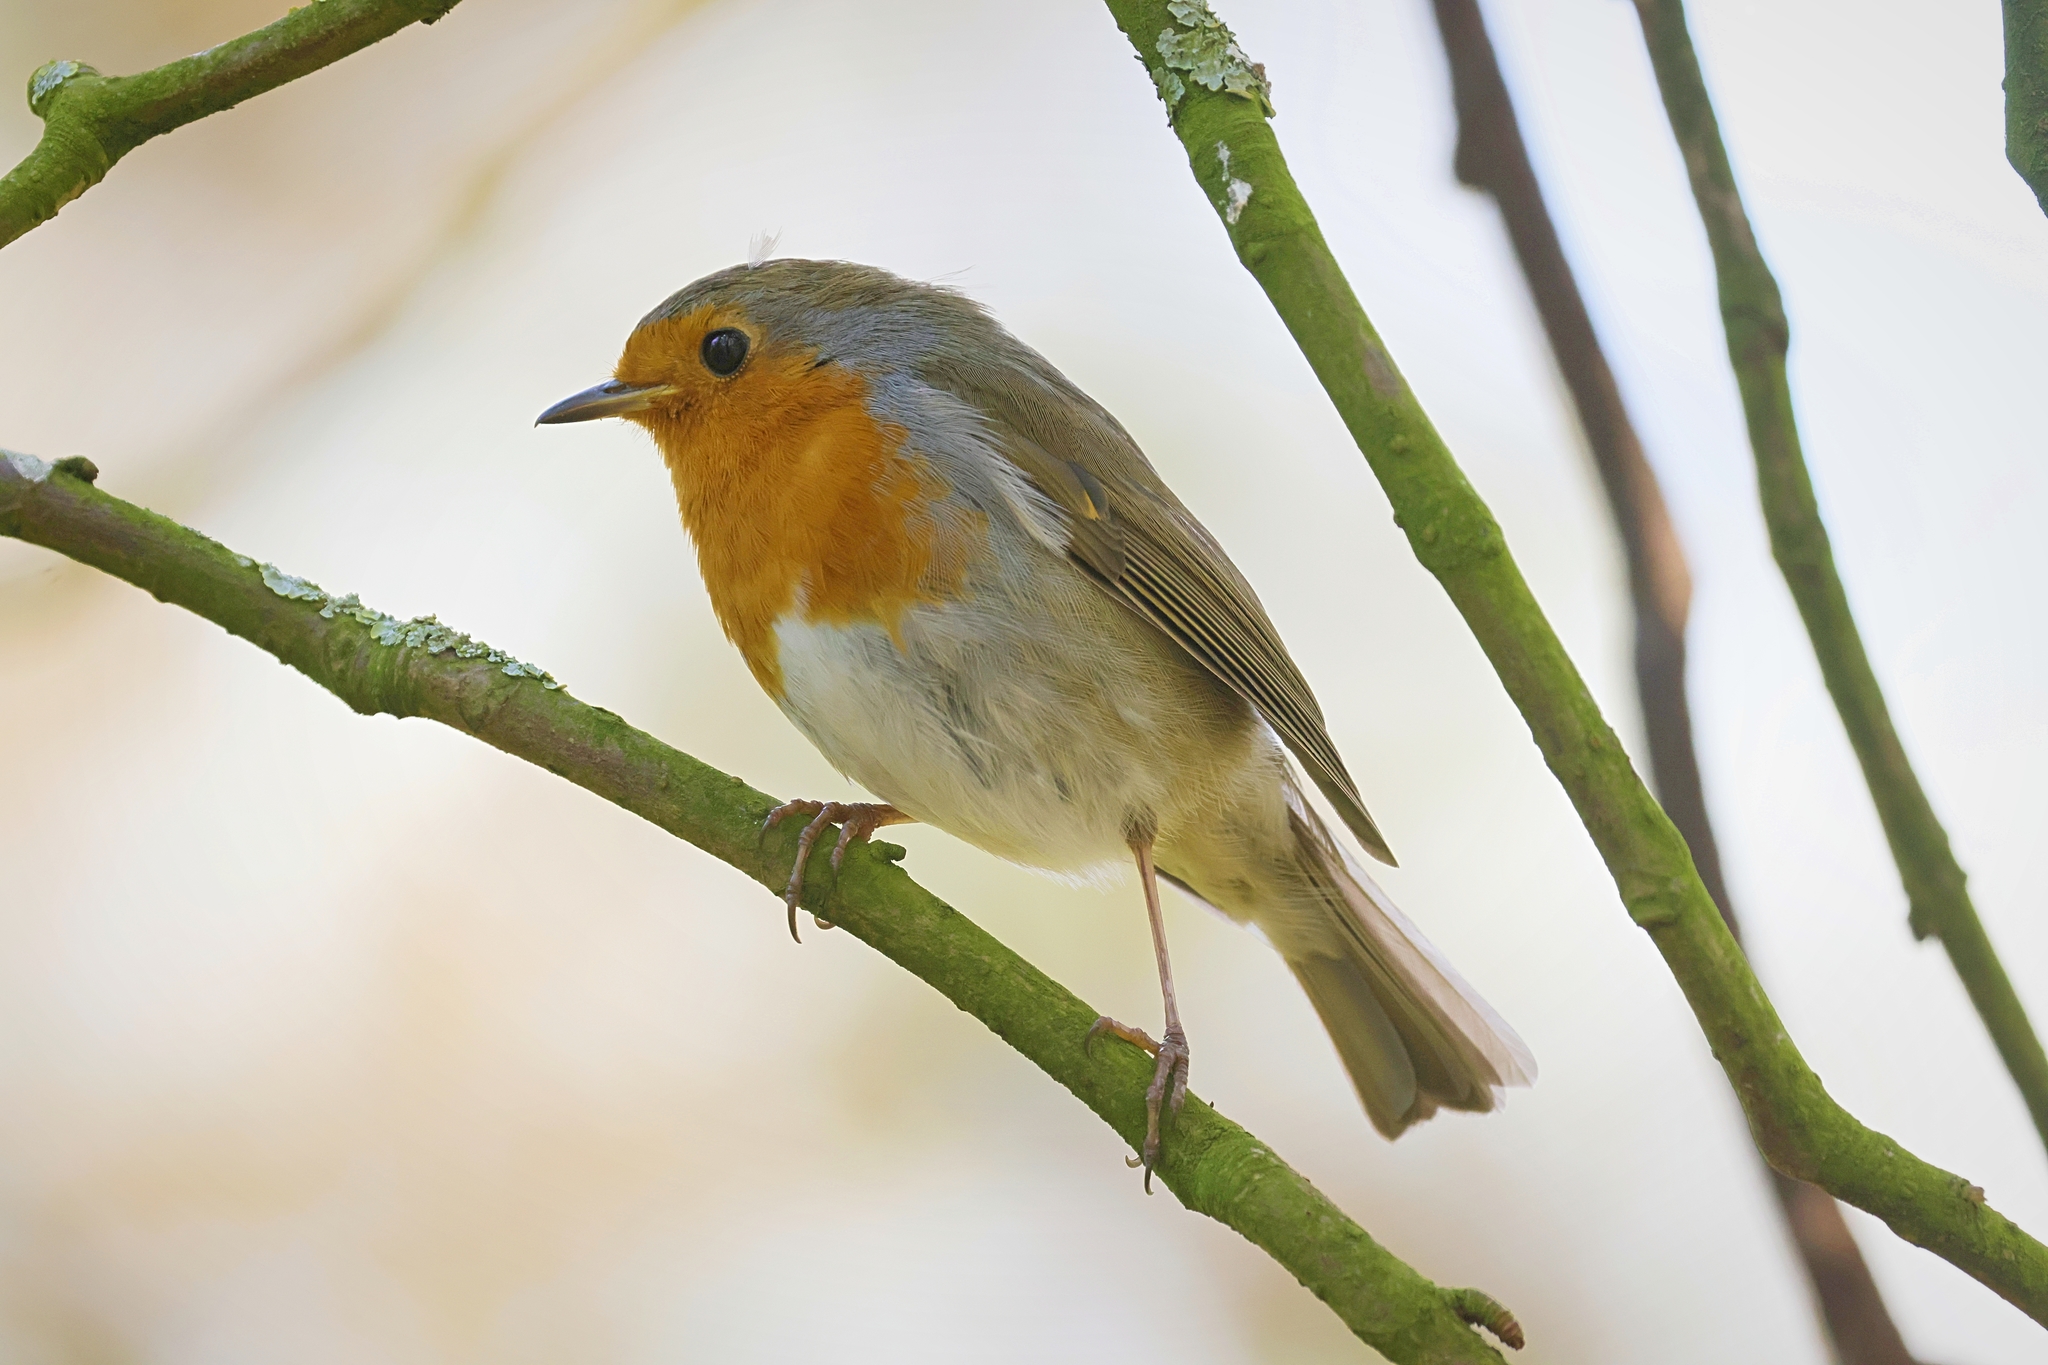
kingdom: Animalia
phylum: Chordata
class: Aves
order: Passeriformes
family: Muscicapidae
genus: Erithacus
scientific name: Erithacus rubecula
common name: European robin
